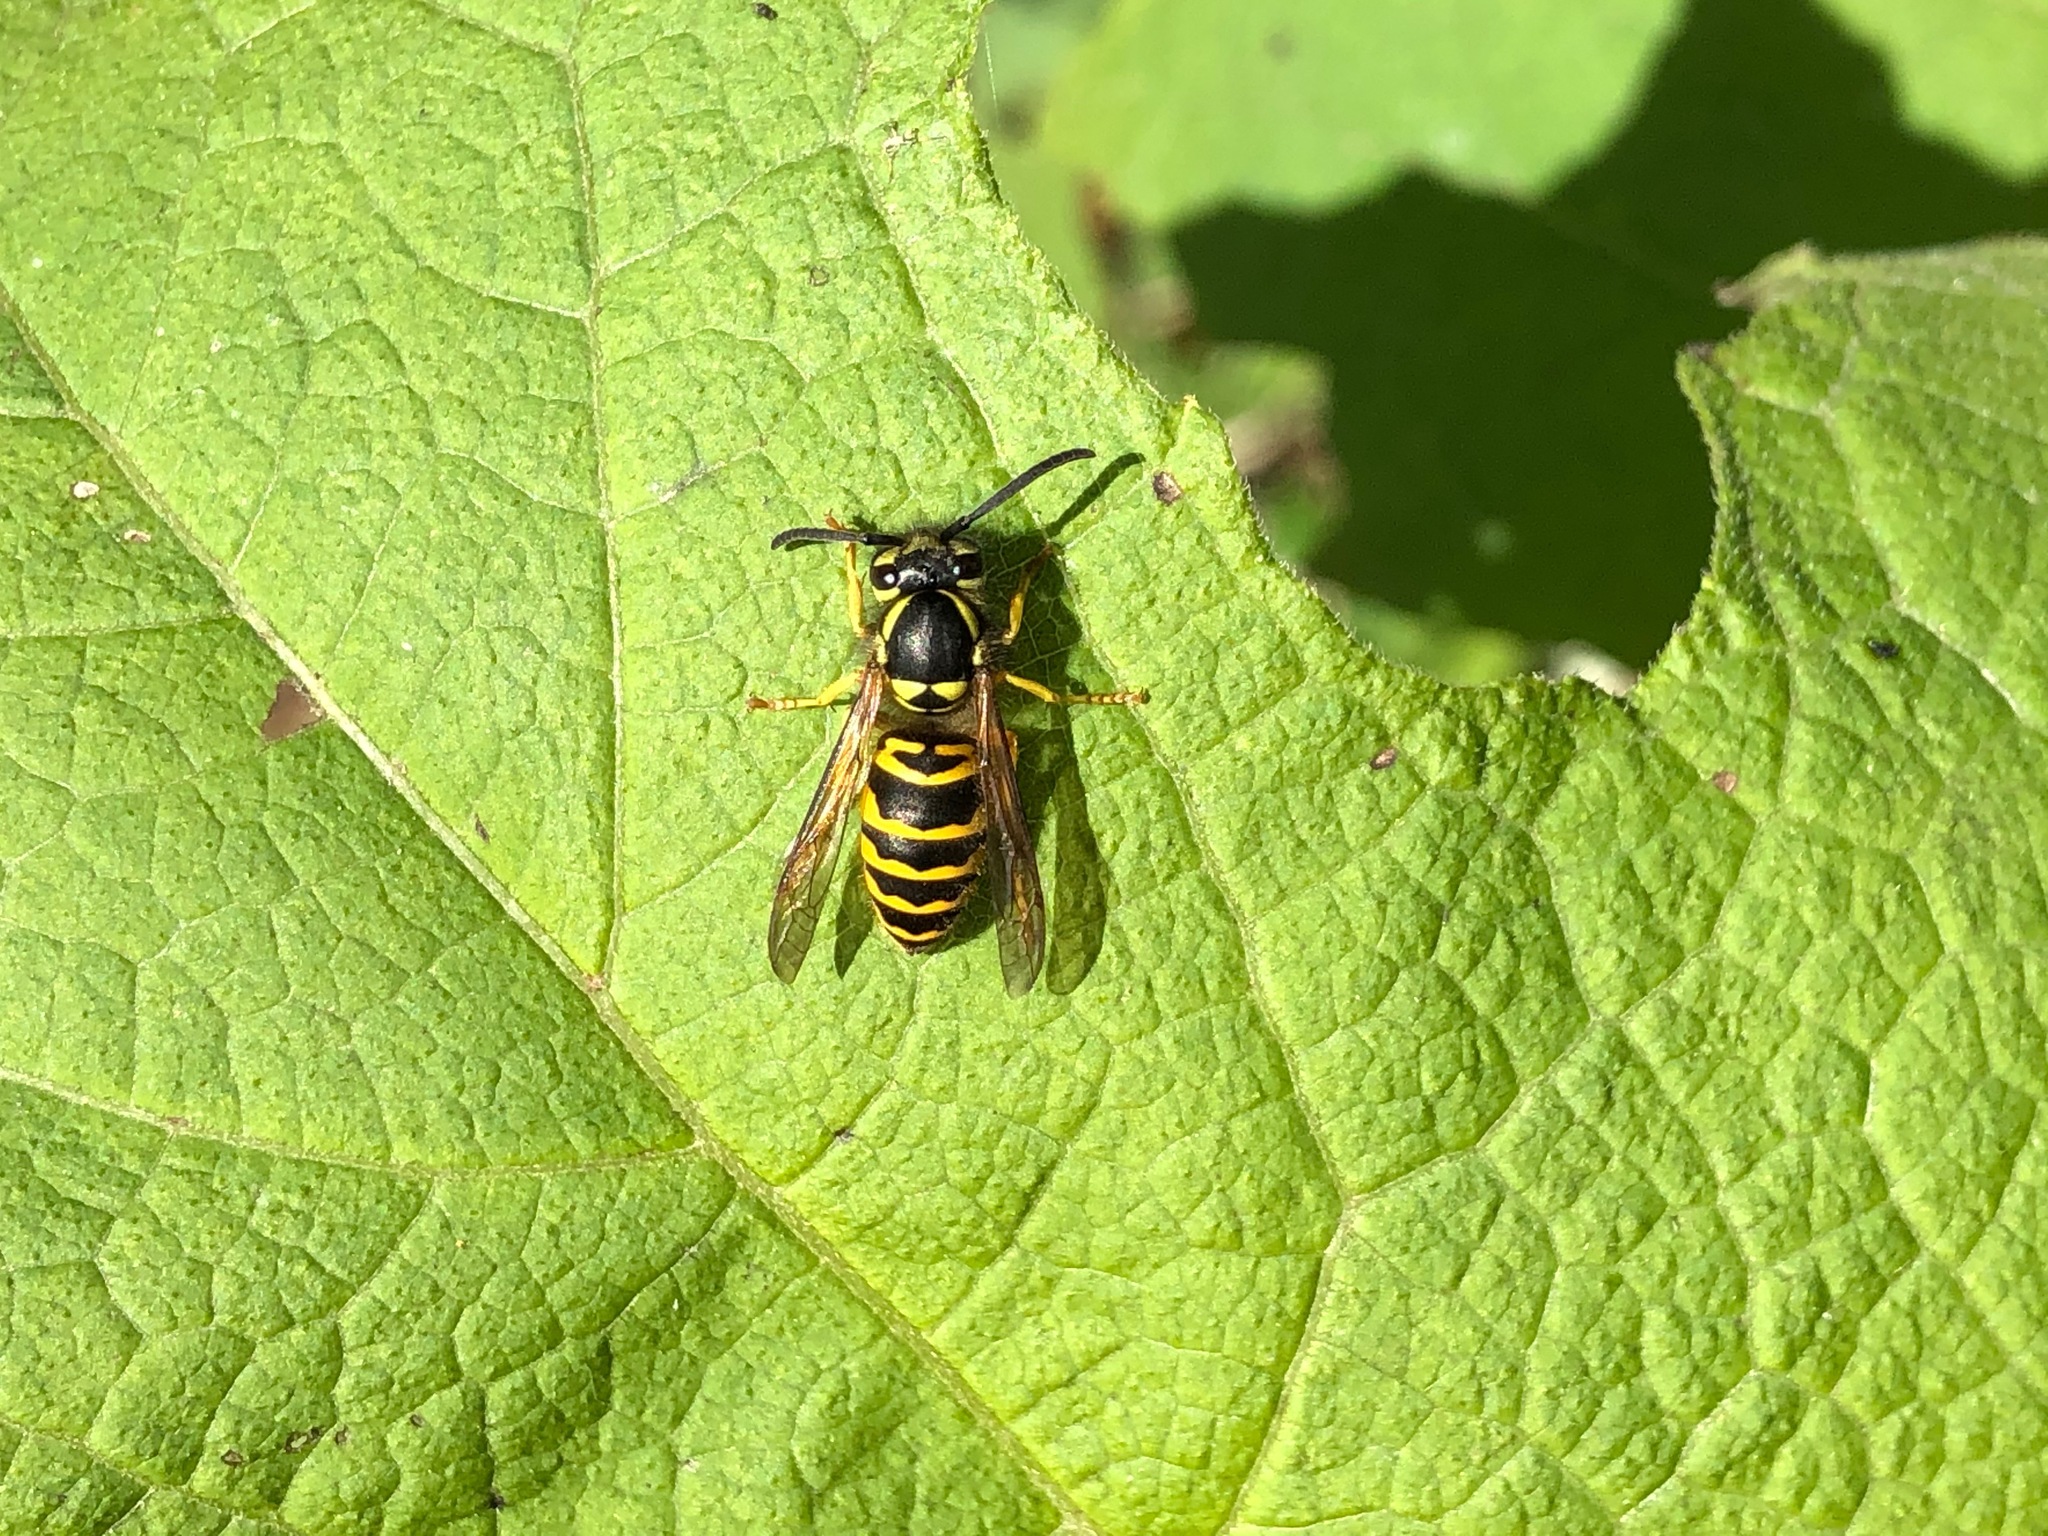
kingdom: Animalia
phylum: Arthropoda
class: Insecta
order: Hymenoptera
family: Vespidae
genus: Vespula
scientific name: Vespula maculifrons
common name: Eastern yellowjacket
